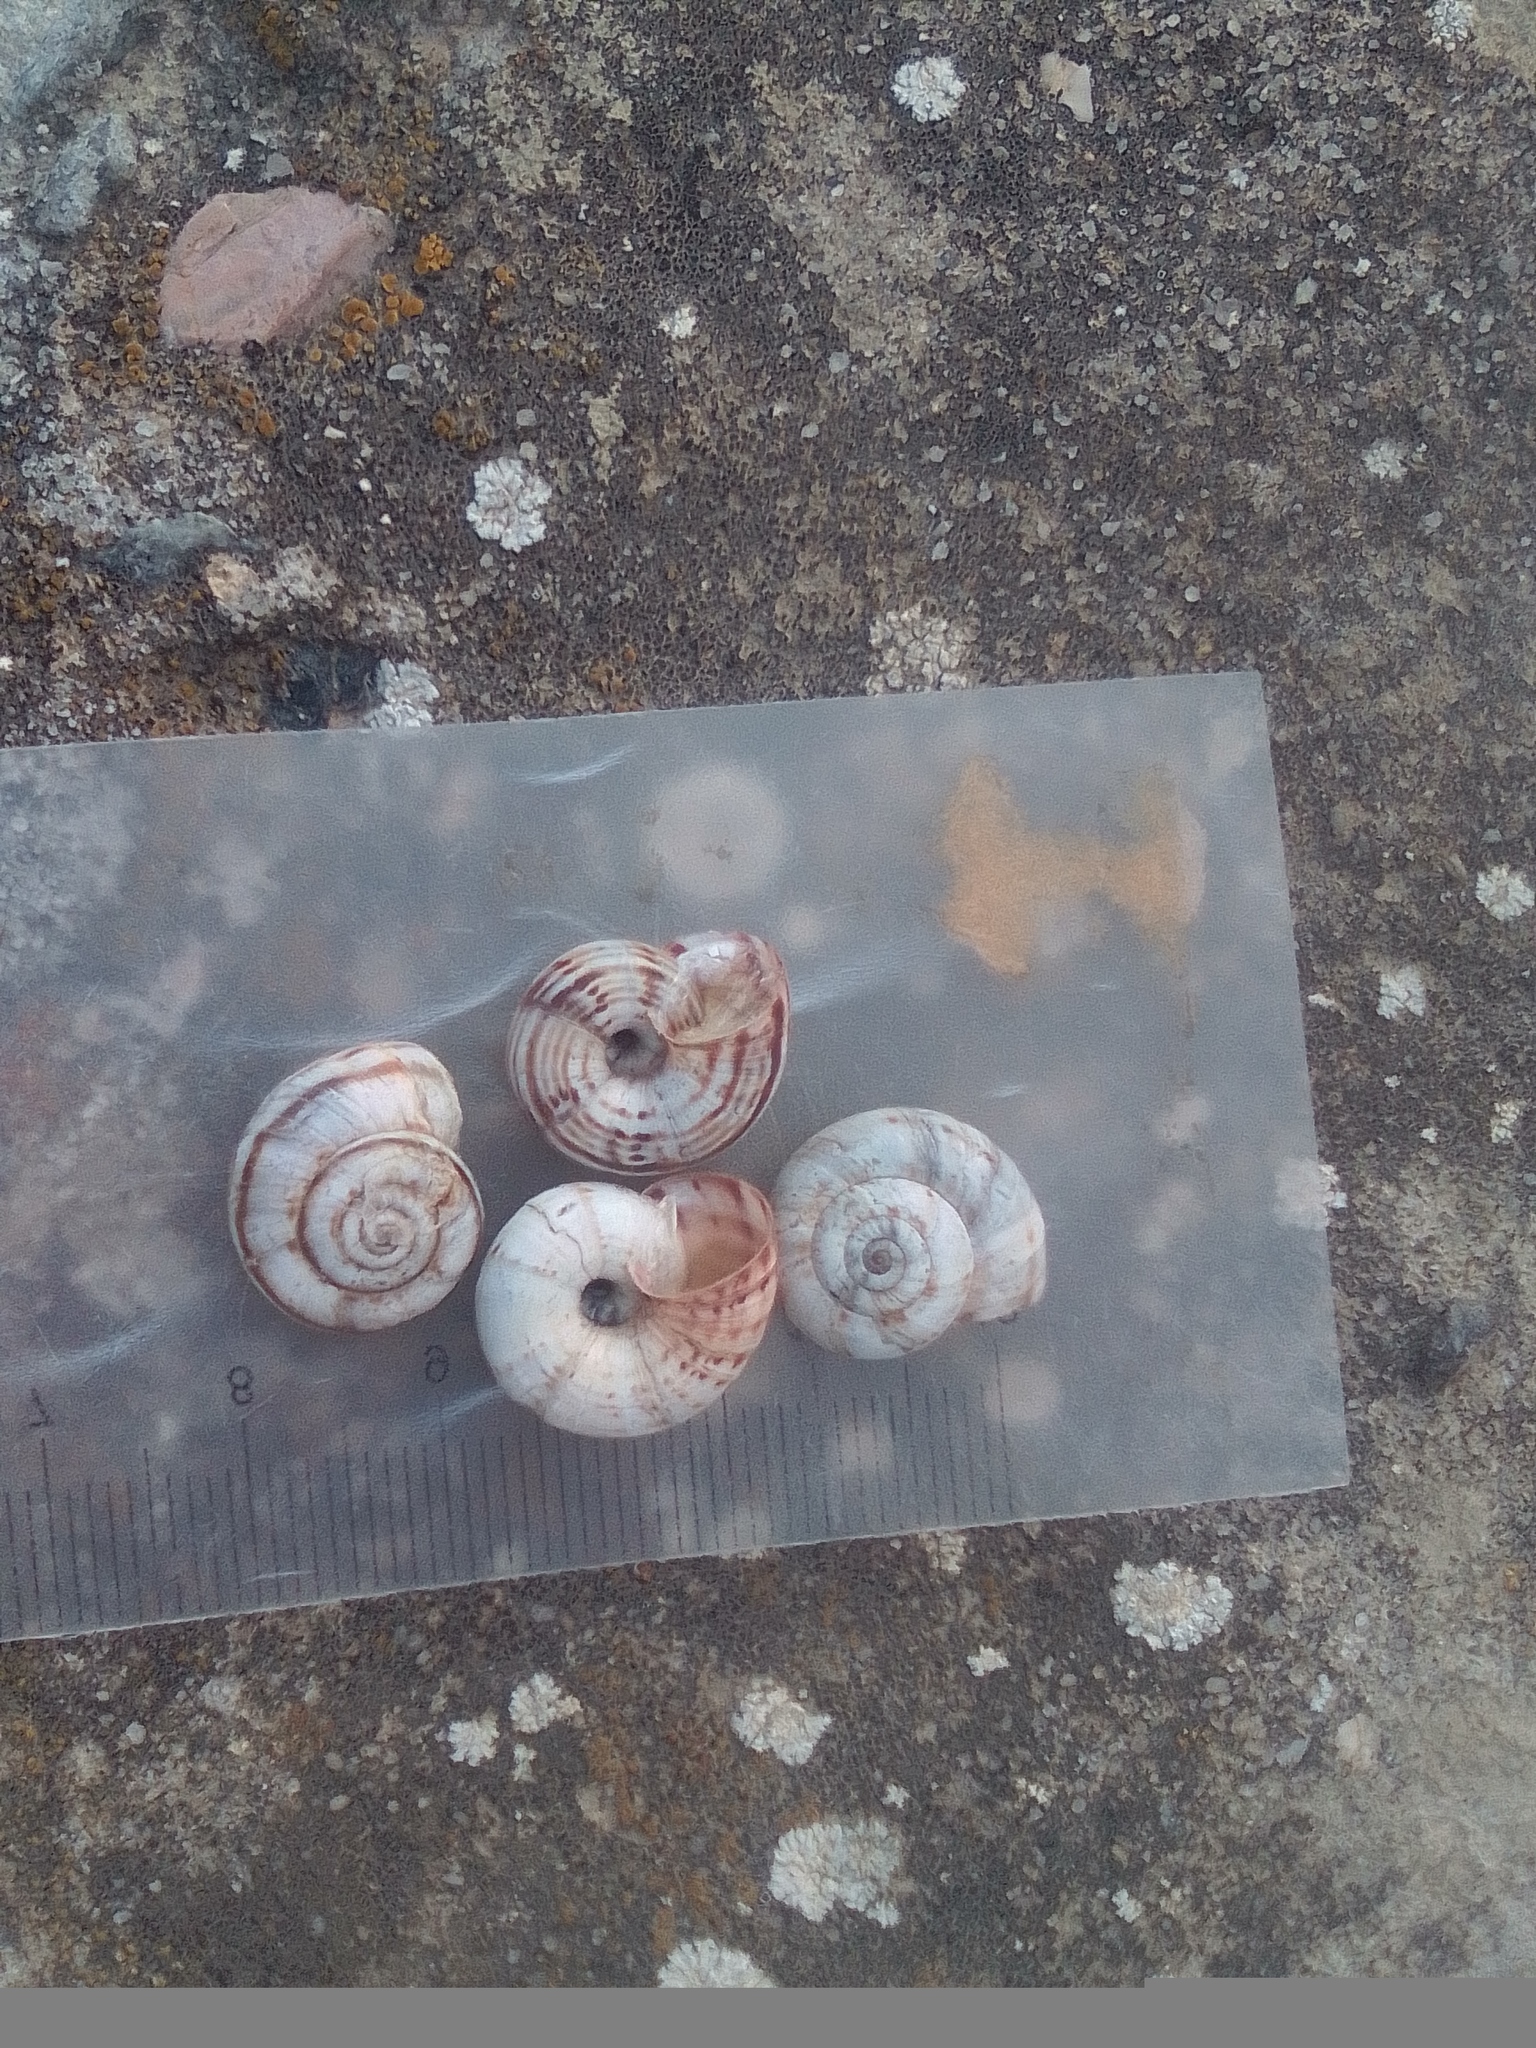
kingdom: Animalia
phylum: Mollusca
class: Gastropoda
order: Stylommatophora
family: Geomitridae
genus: Xeropicta
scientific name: Xeropicta derbentina
